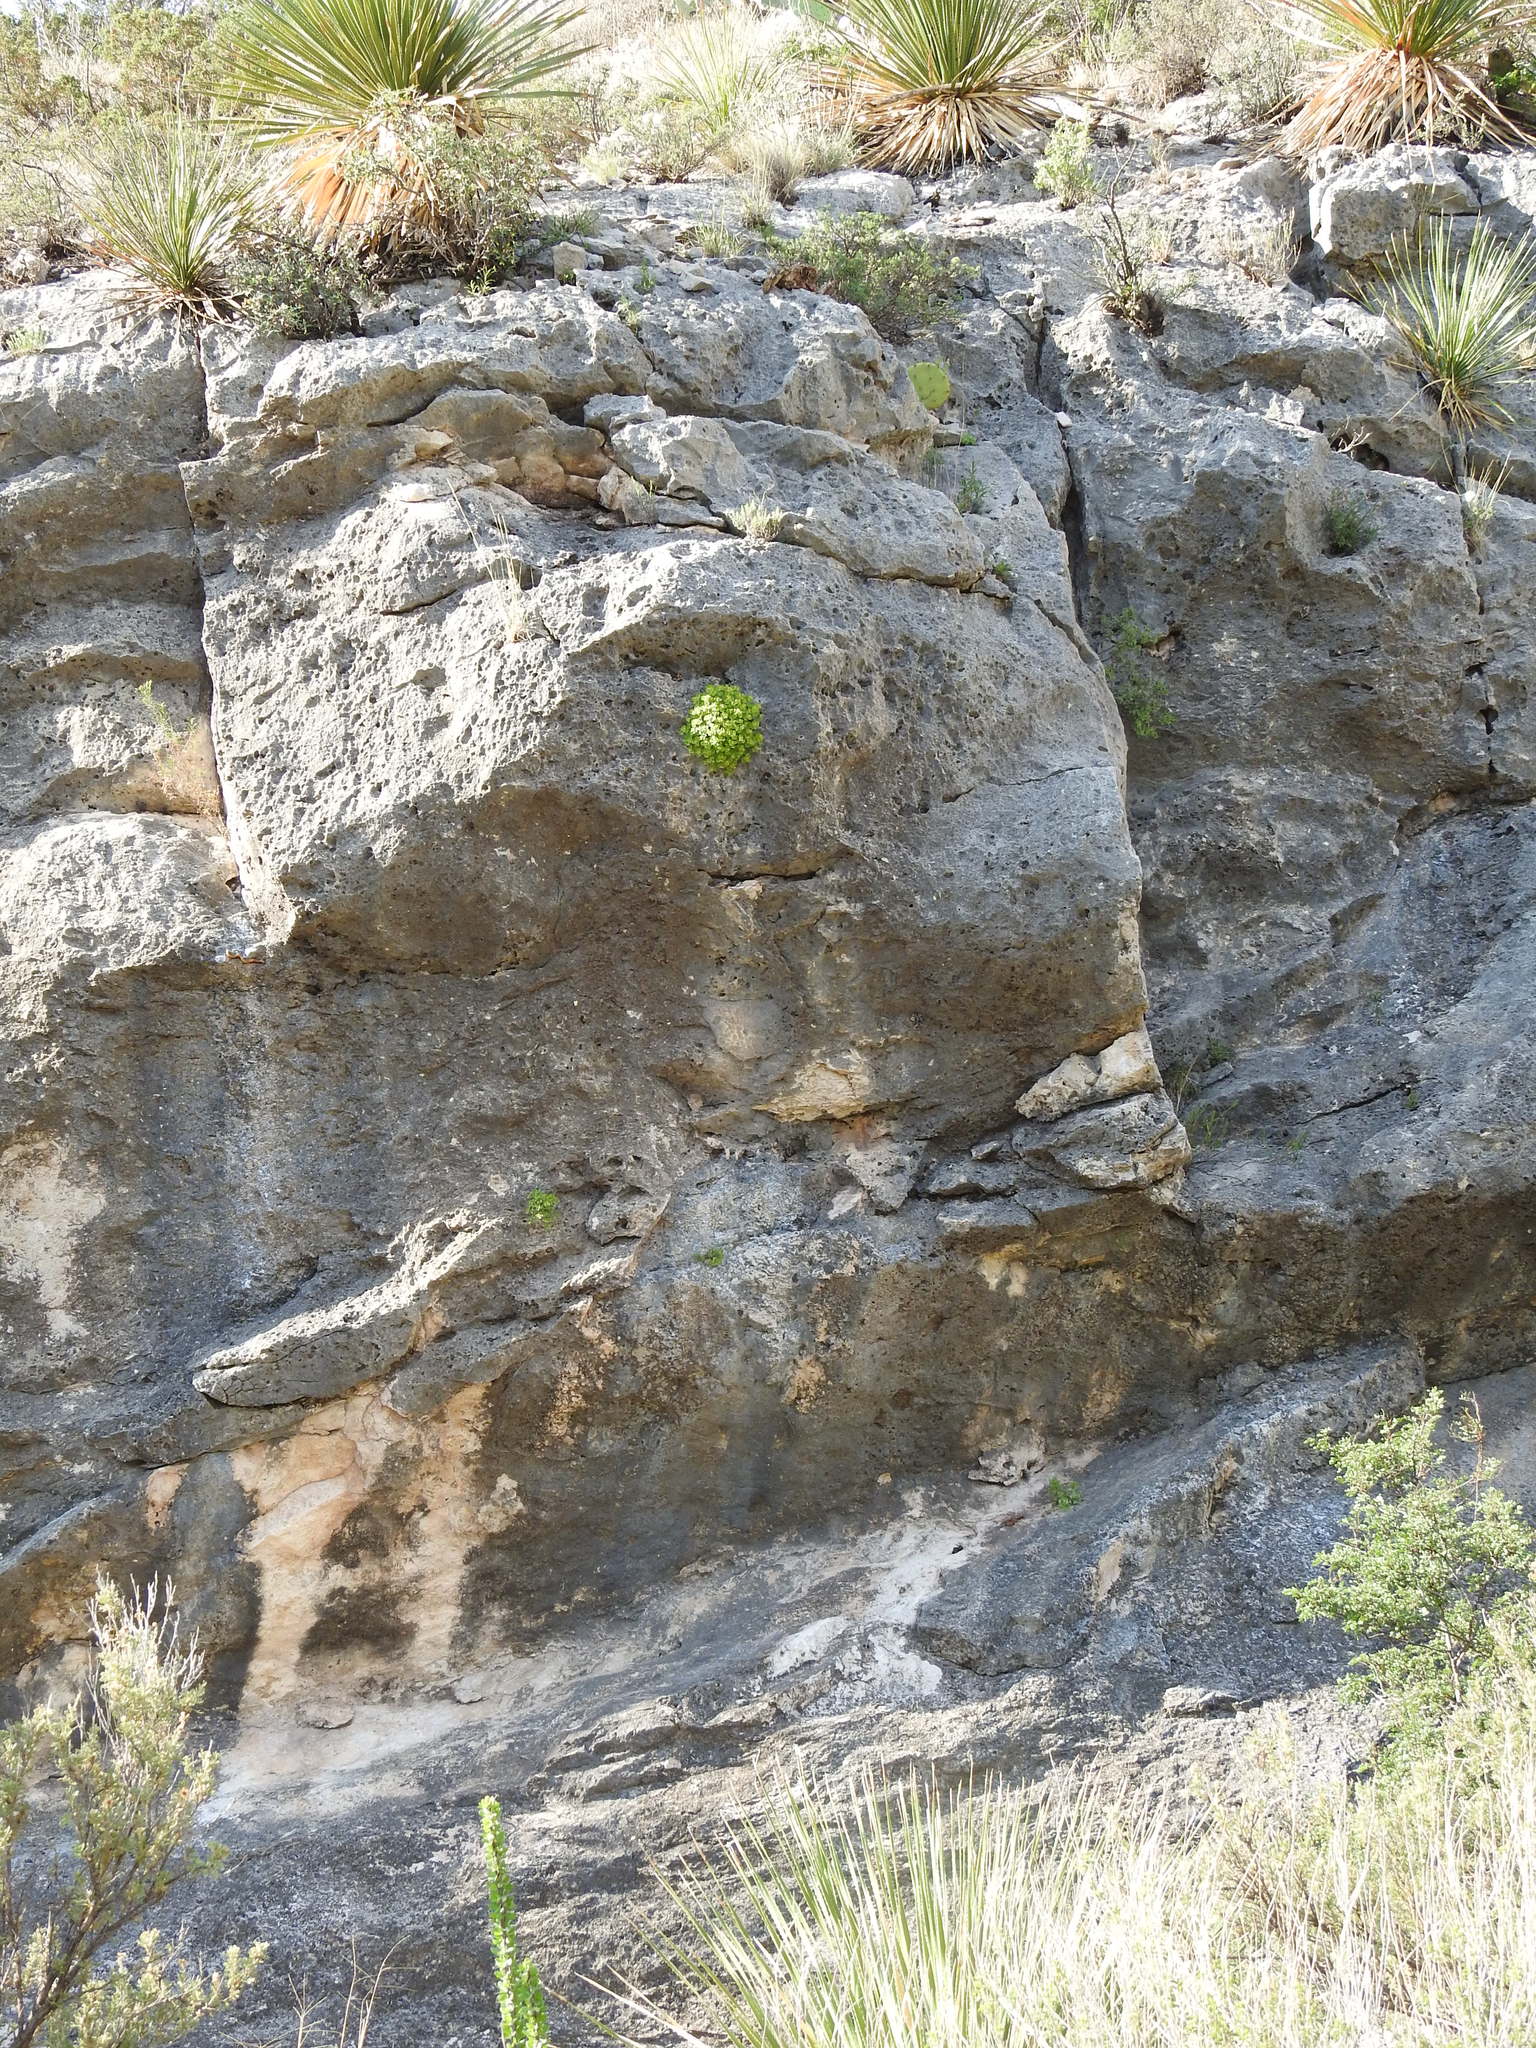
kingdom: Plantae
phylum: Tracheophyta
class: Magnoliopsida
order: Asterales
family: Asteraceae
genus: Laphamia
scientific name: Laphamia quinqueflora
